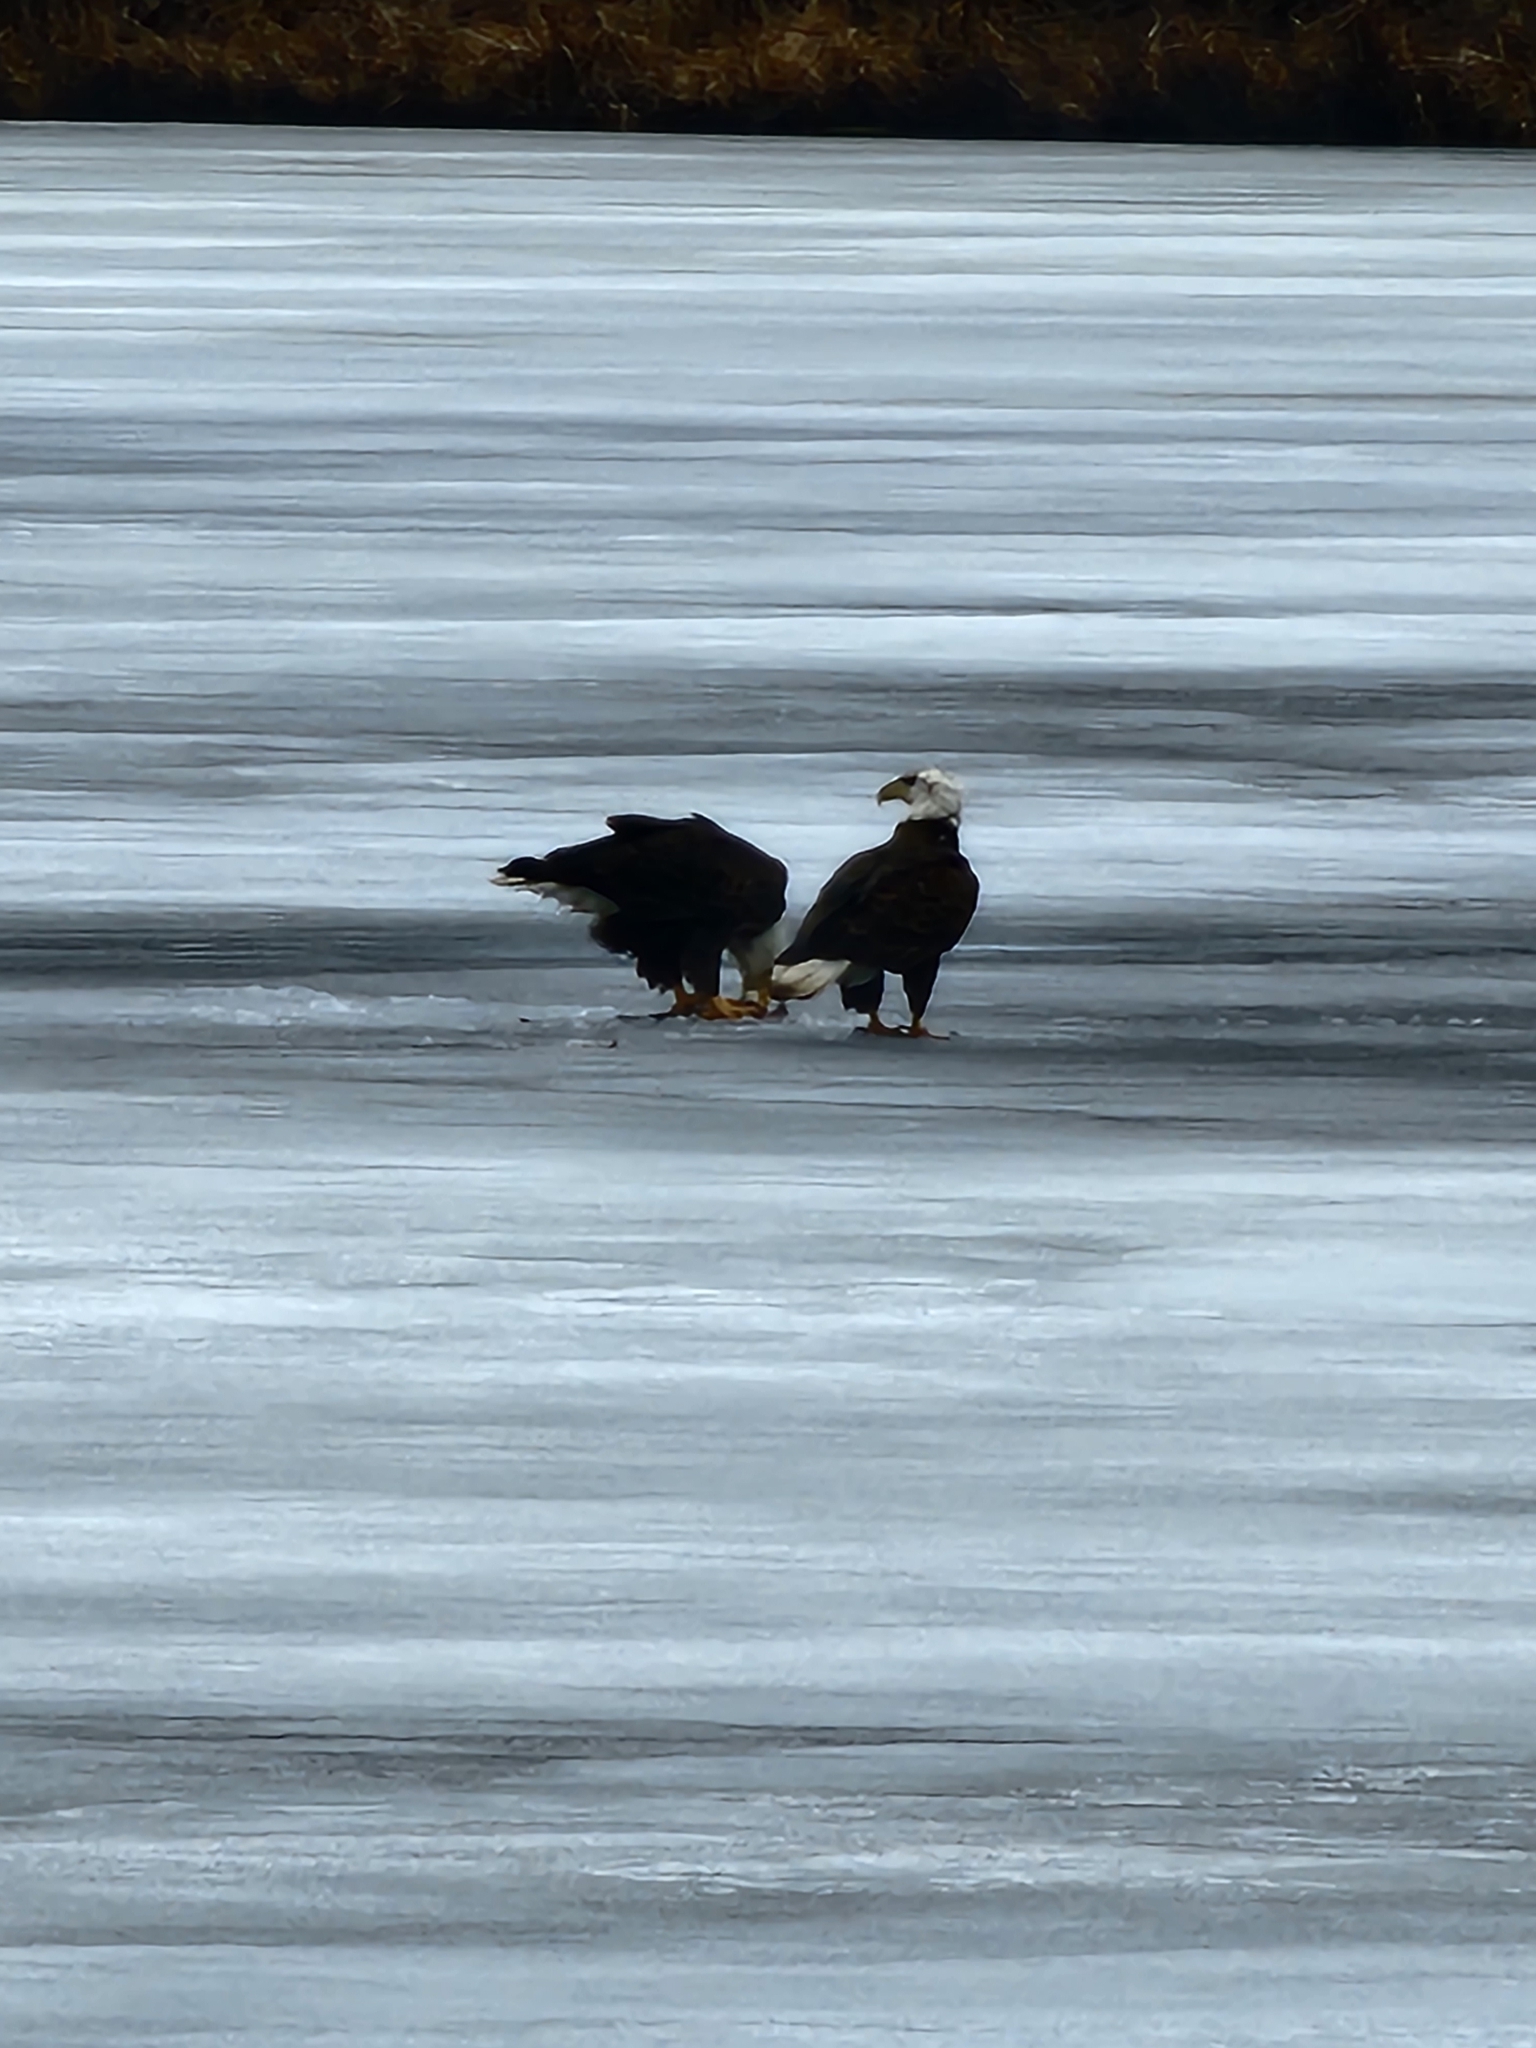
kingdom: Animalia
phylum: Chordata
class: Aves
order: Accipitriformes
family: Accipitridae
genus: Haliaeetus
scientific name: Haliaeetus leucocephalus
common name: Bald eagle
